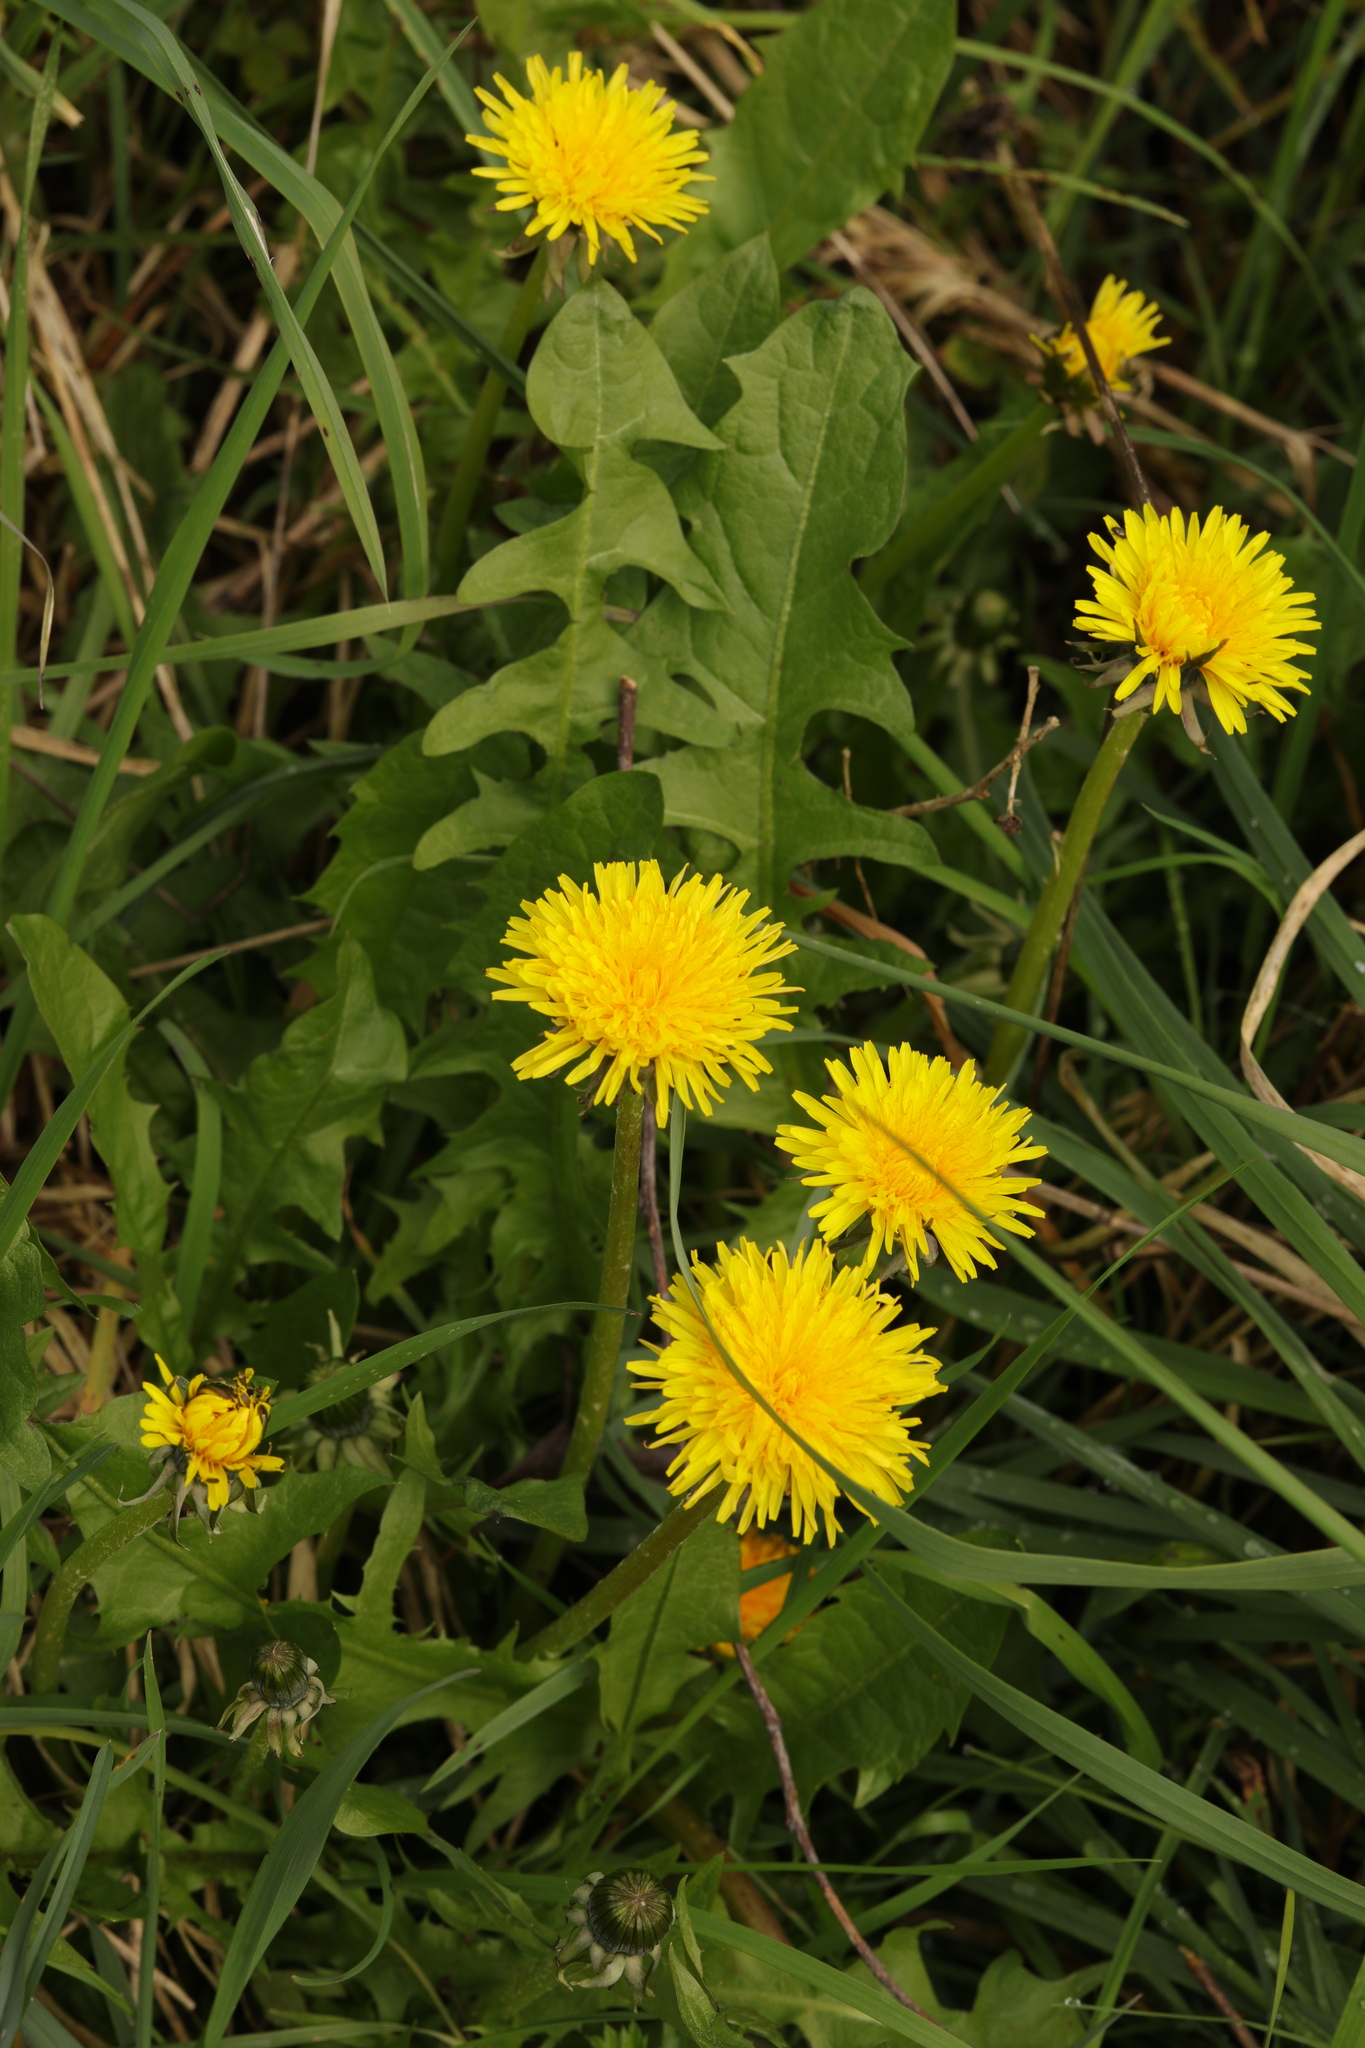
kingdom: Plantae
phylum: Tracheophyta
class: Magnoliopsida
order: Asterales
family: Asteraceae
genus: Taraxacum
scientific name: Taraxacum officinale
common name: Common dandelion
